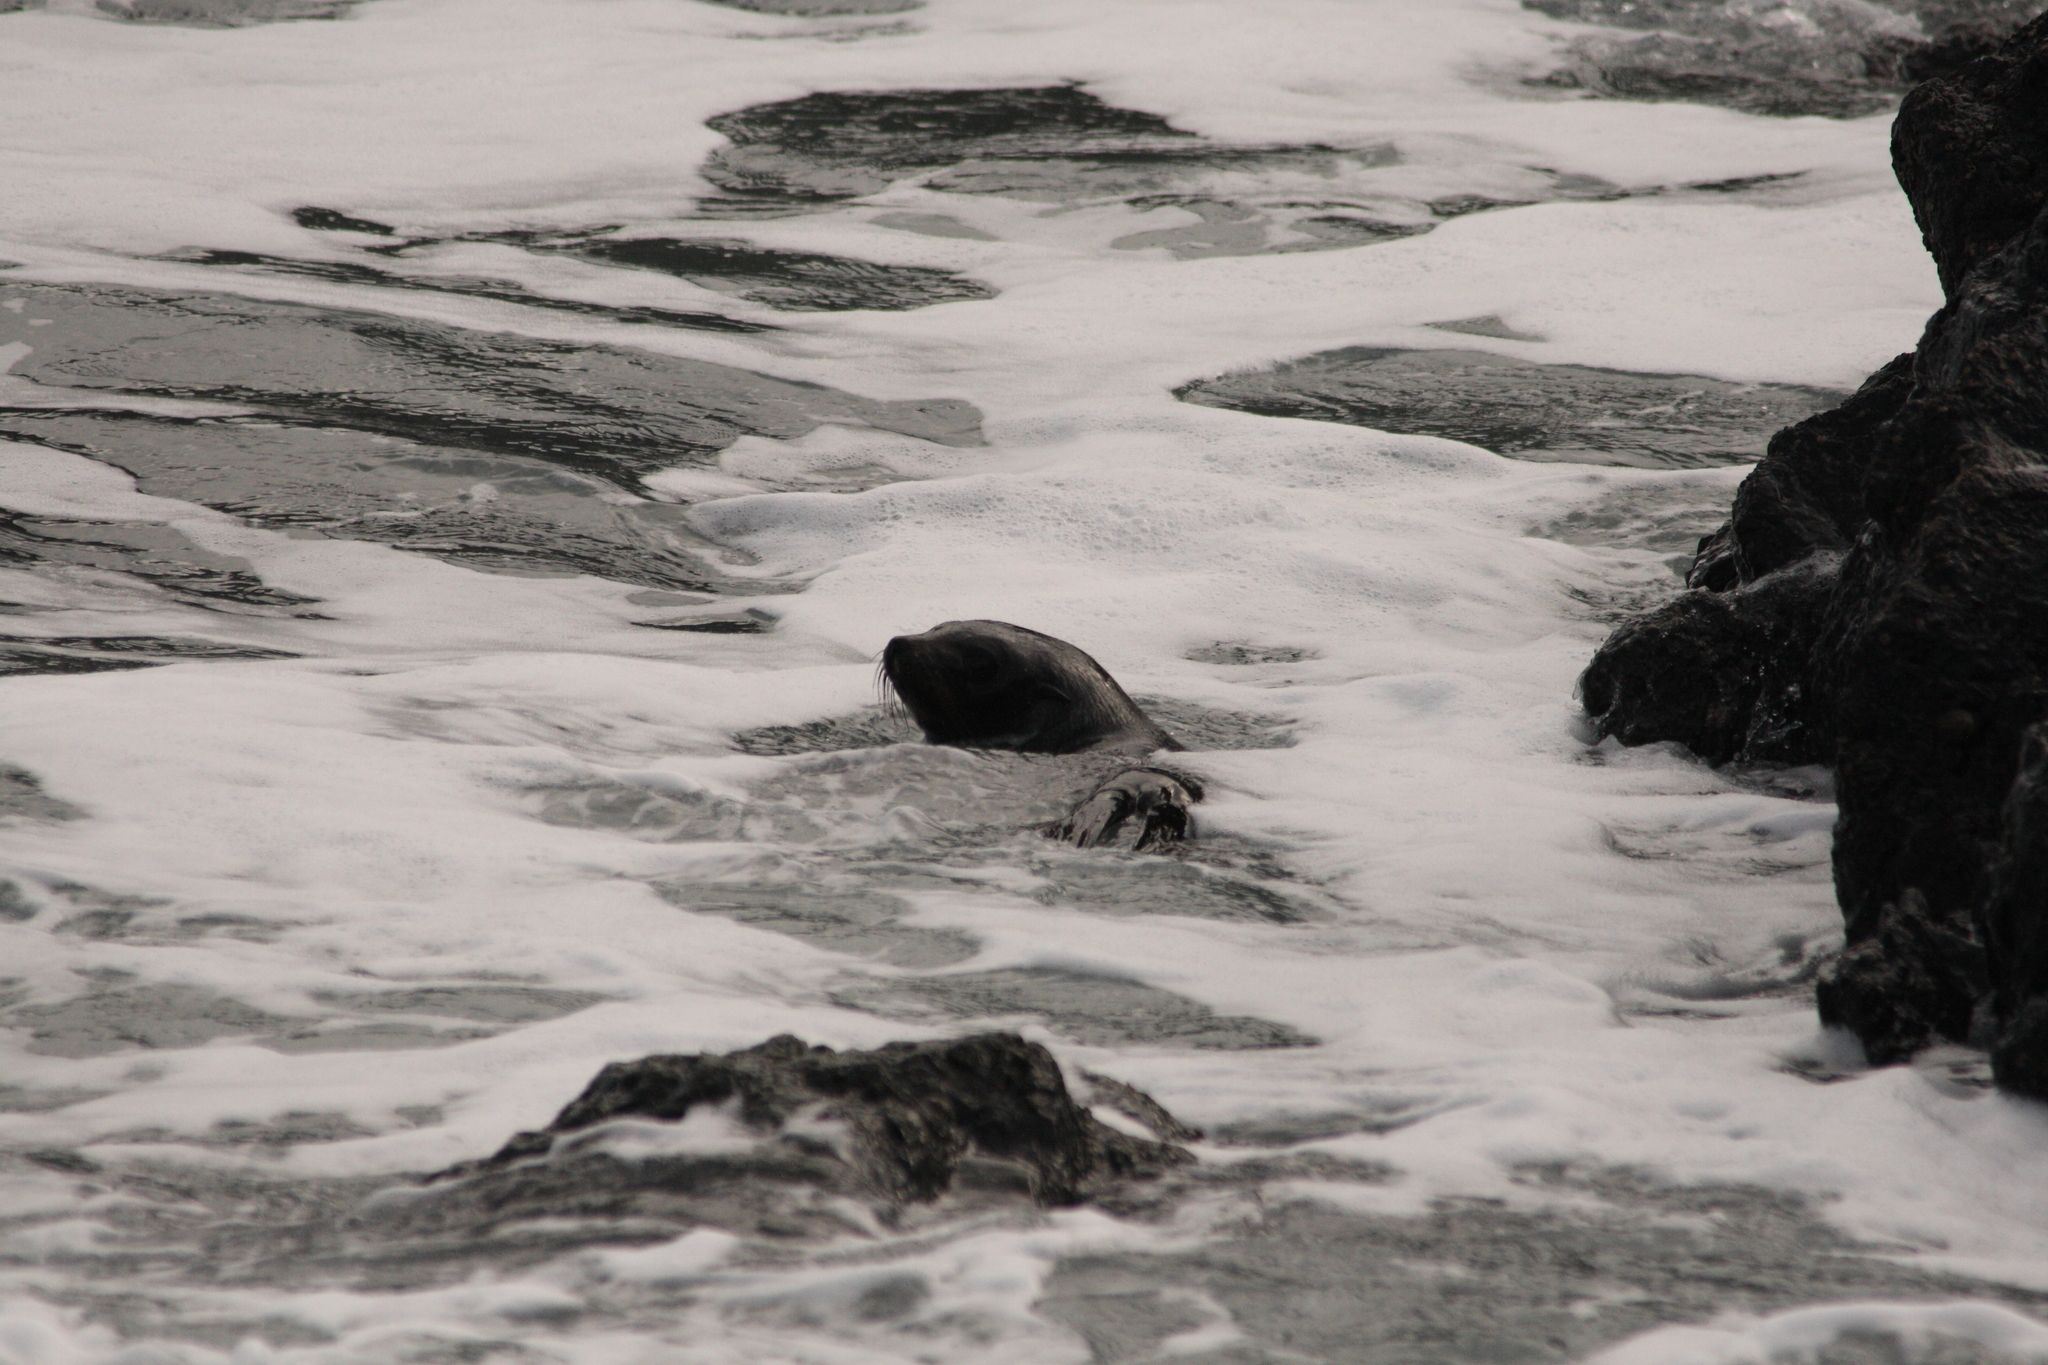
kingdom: Animalia
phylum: Chordata
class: Mammalia
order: Carnivora
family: Otariidae
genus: Arctocephalus
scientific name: Arctocephalus forsteri
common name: New zealand fur seal
